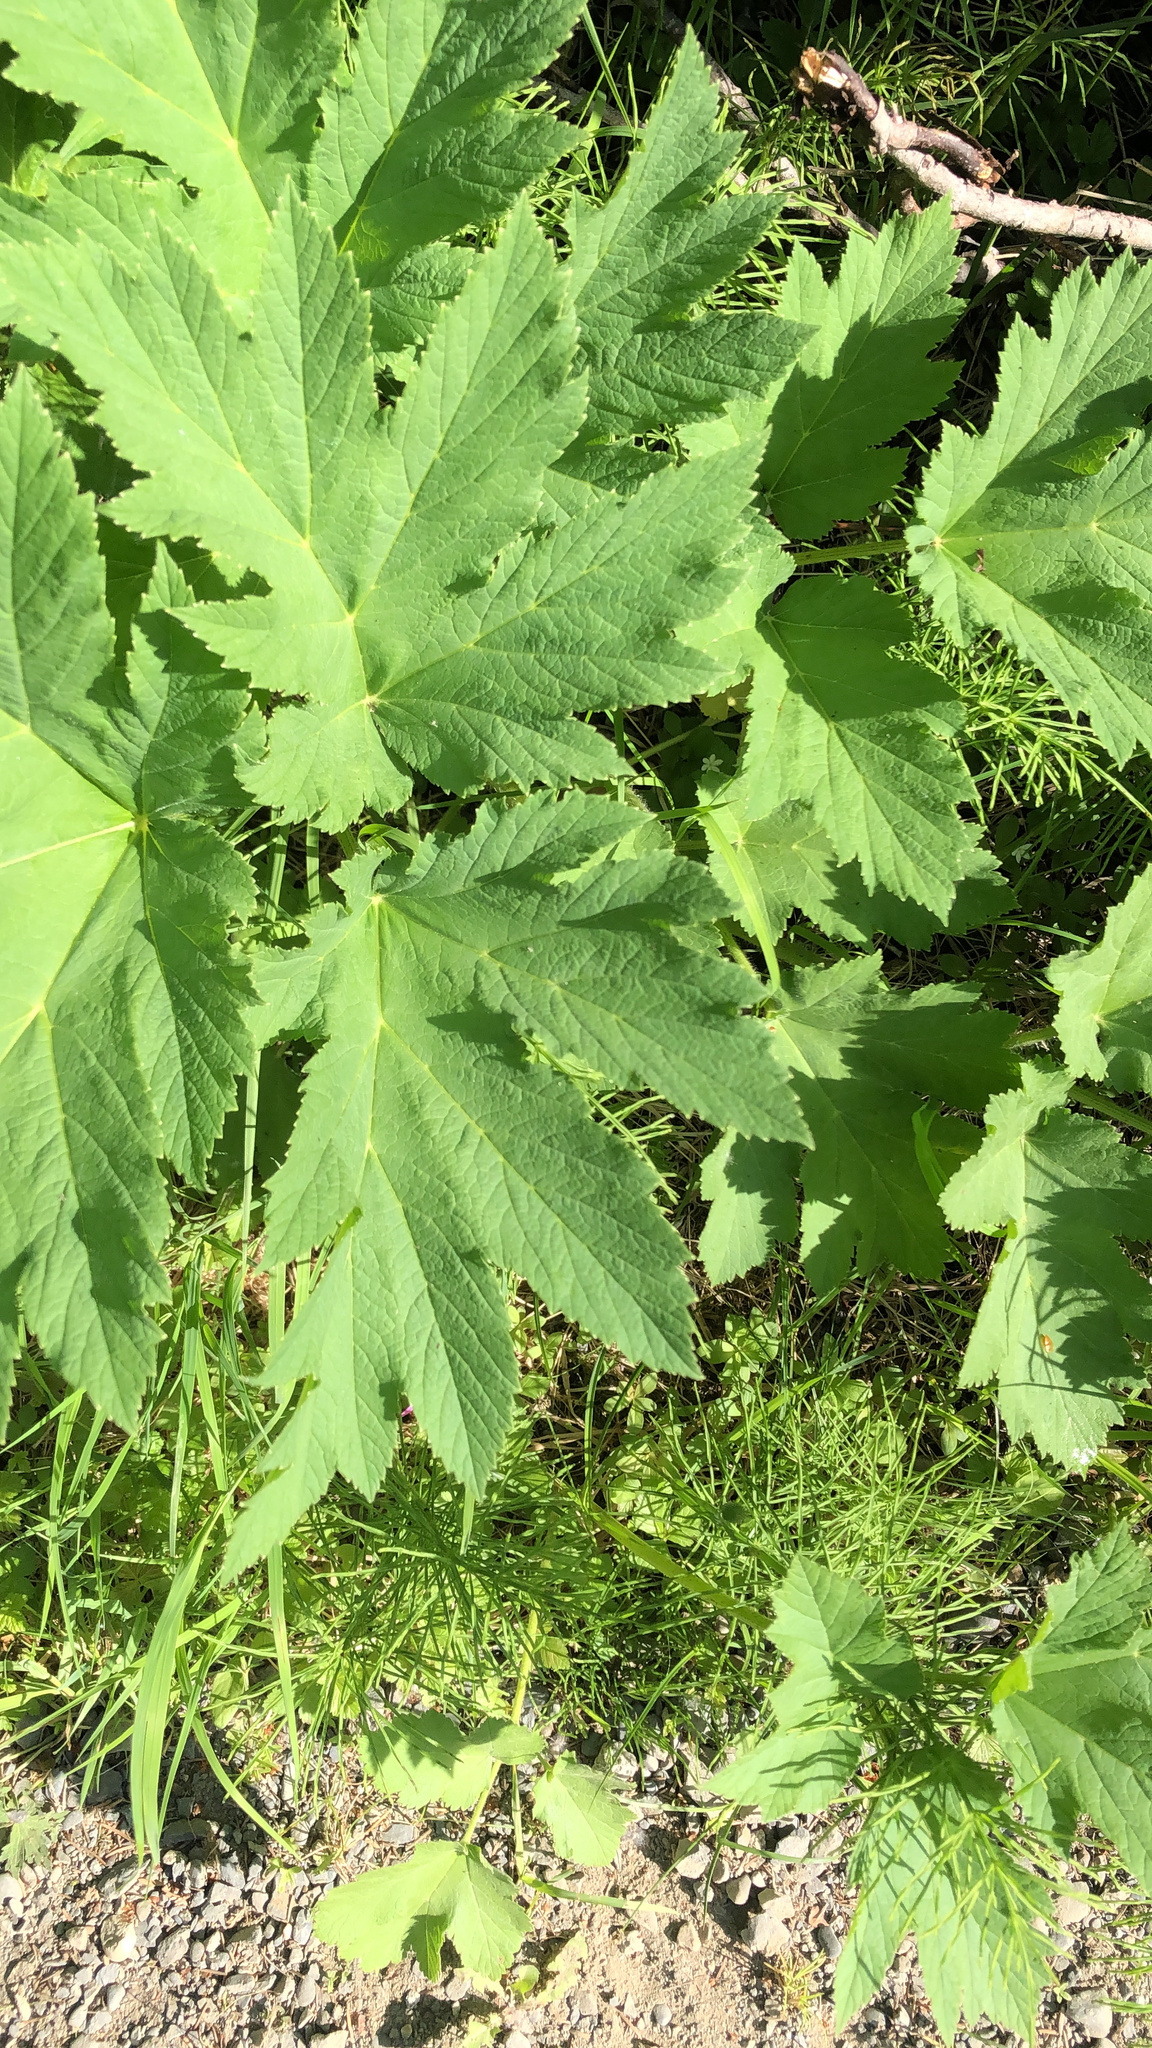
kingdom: Plantae
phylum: Tracheophyta
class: Magnoliopsida
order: Apiales
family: Apiaceae
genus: Heracleum
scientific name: Heracleum maximum
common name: American cow parsnip
